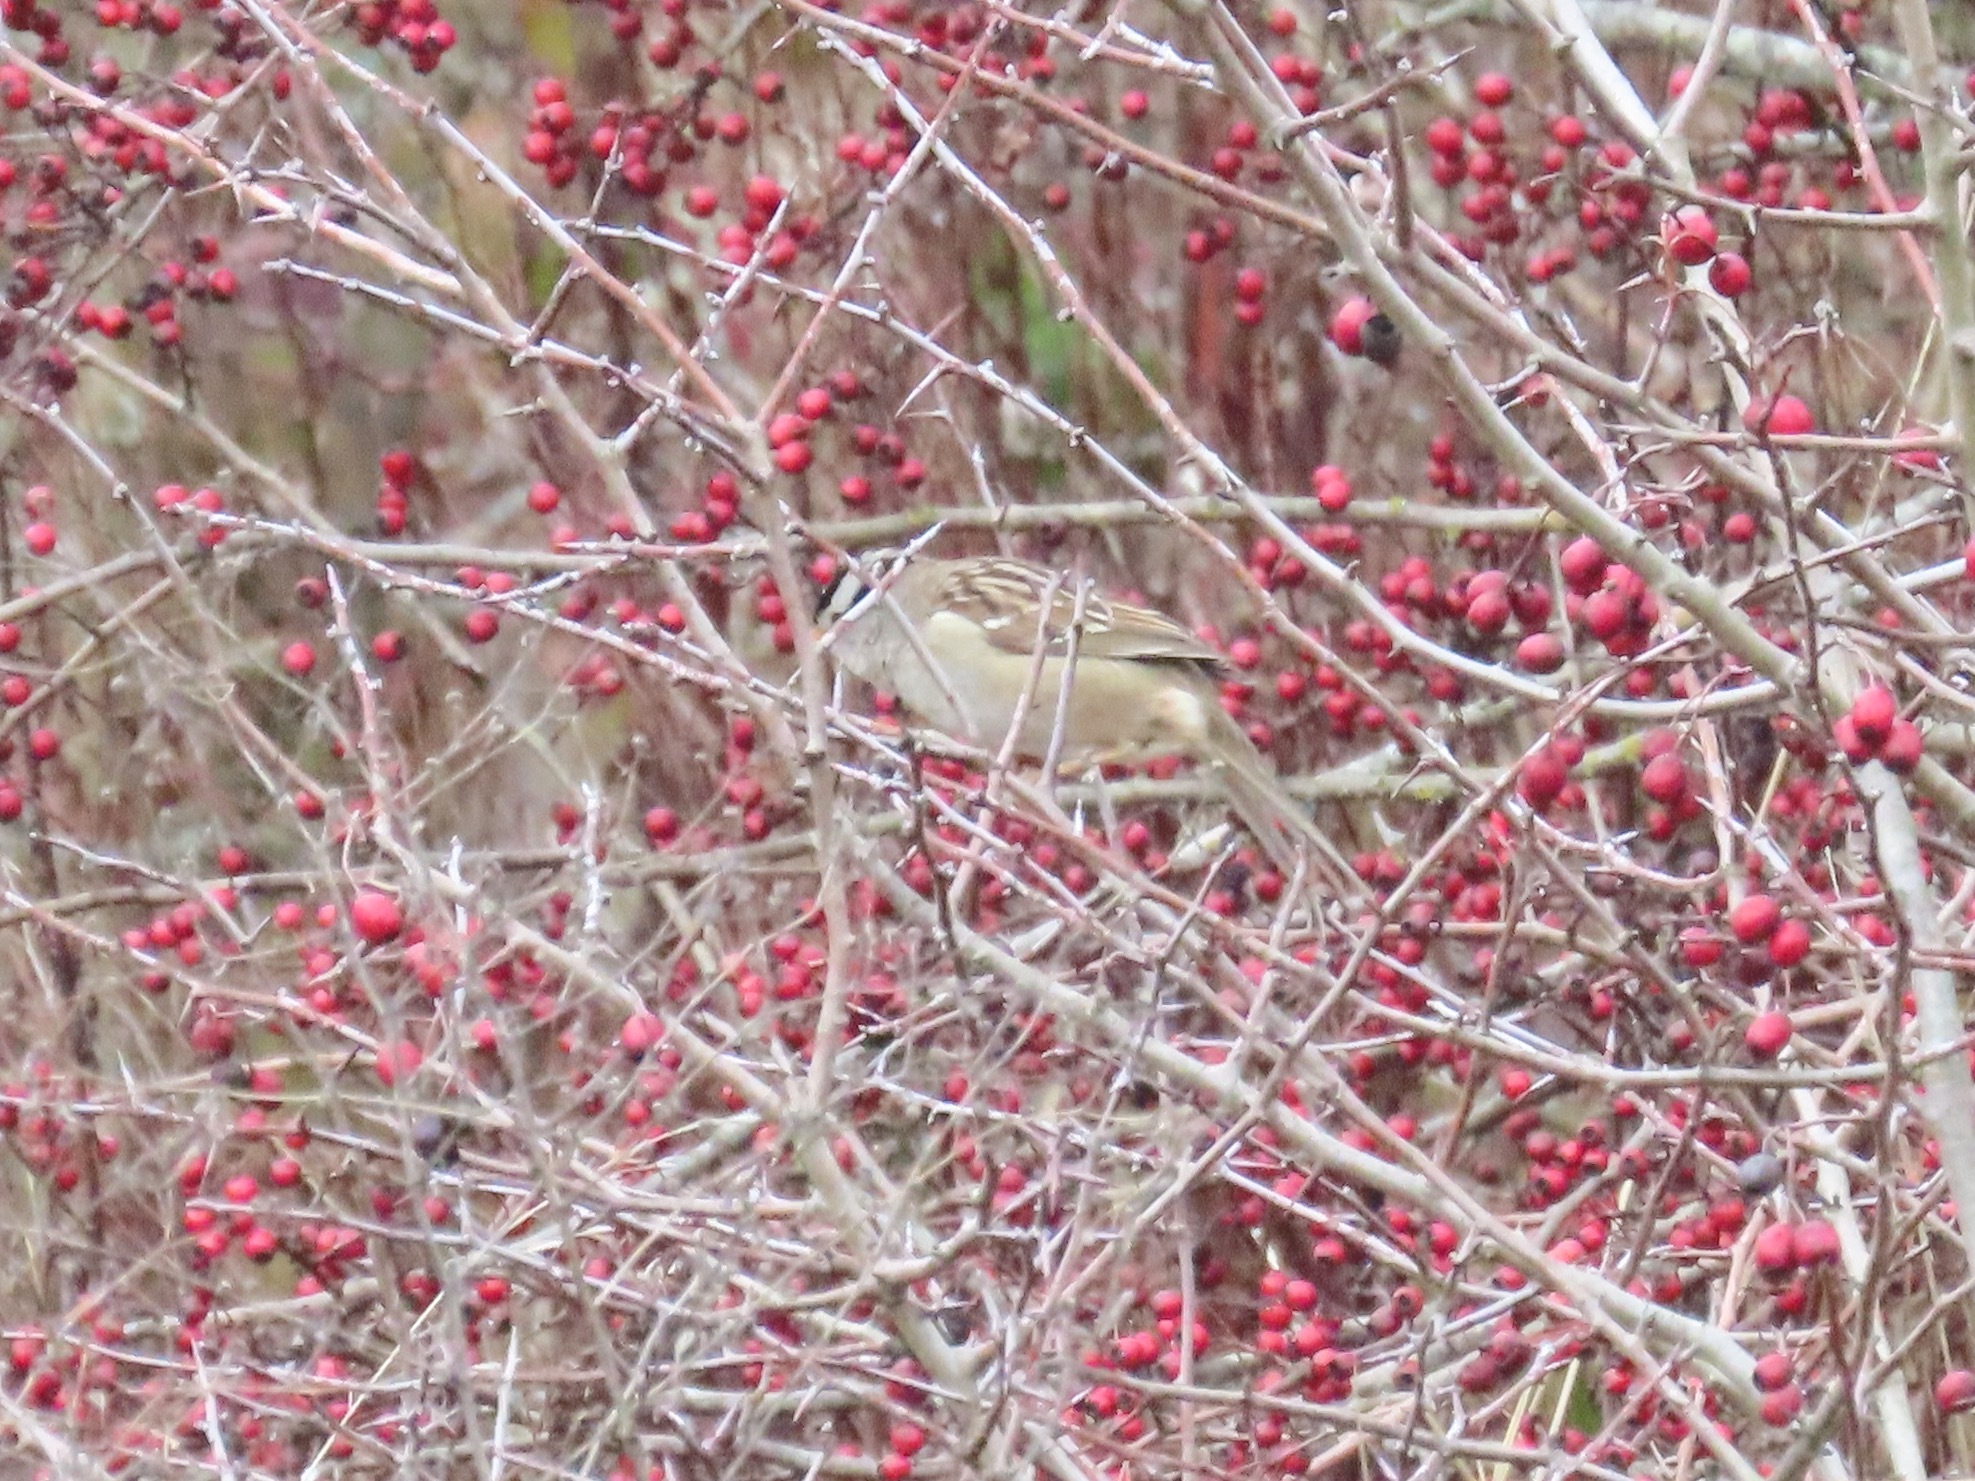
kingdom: Animalia
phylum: Chordata
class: Aves
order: Passeriformes
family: Passerellidae
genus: Zonotrichia
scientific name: Zonotrichia leucophrys
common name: White-crowned sparrow
